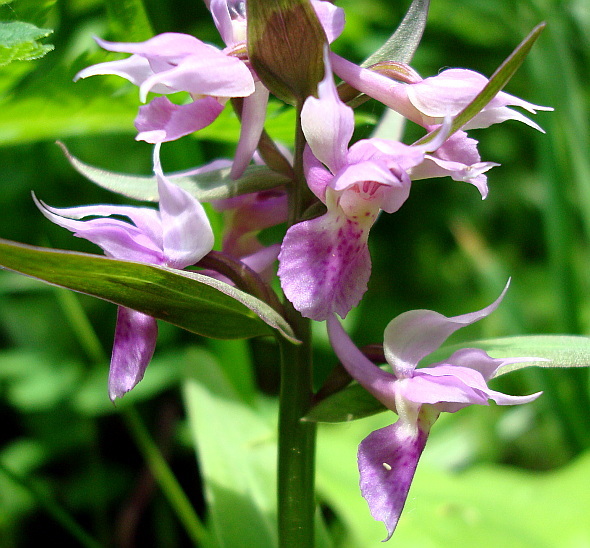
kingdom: Plantae
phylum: Tracheophyta
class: Liliopsida
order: Asparagales
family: Orchidaceae
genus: Dactylorhiza
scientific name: Dactylorhiza aristata
